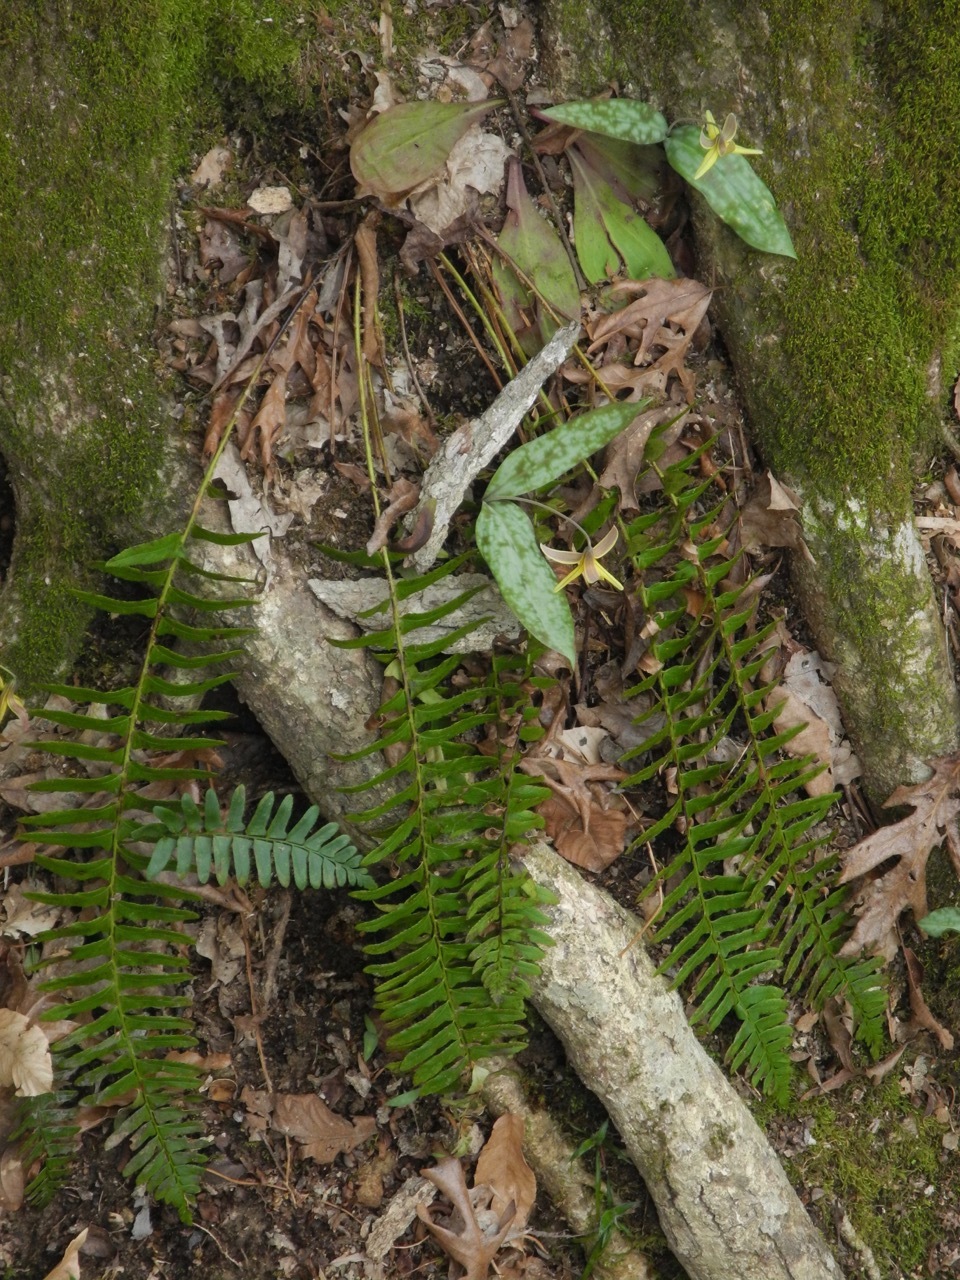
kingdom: Plantae
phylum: Tracheophyta
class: Liliopsida
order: Liliales
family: Liliaceae
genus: Erythronium
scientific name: Erythronium umbilicatum
